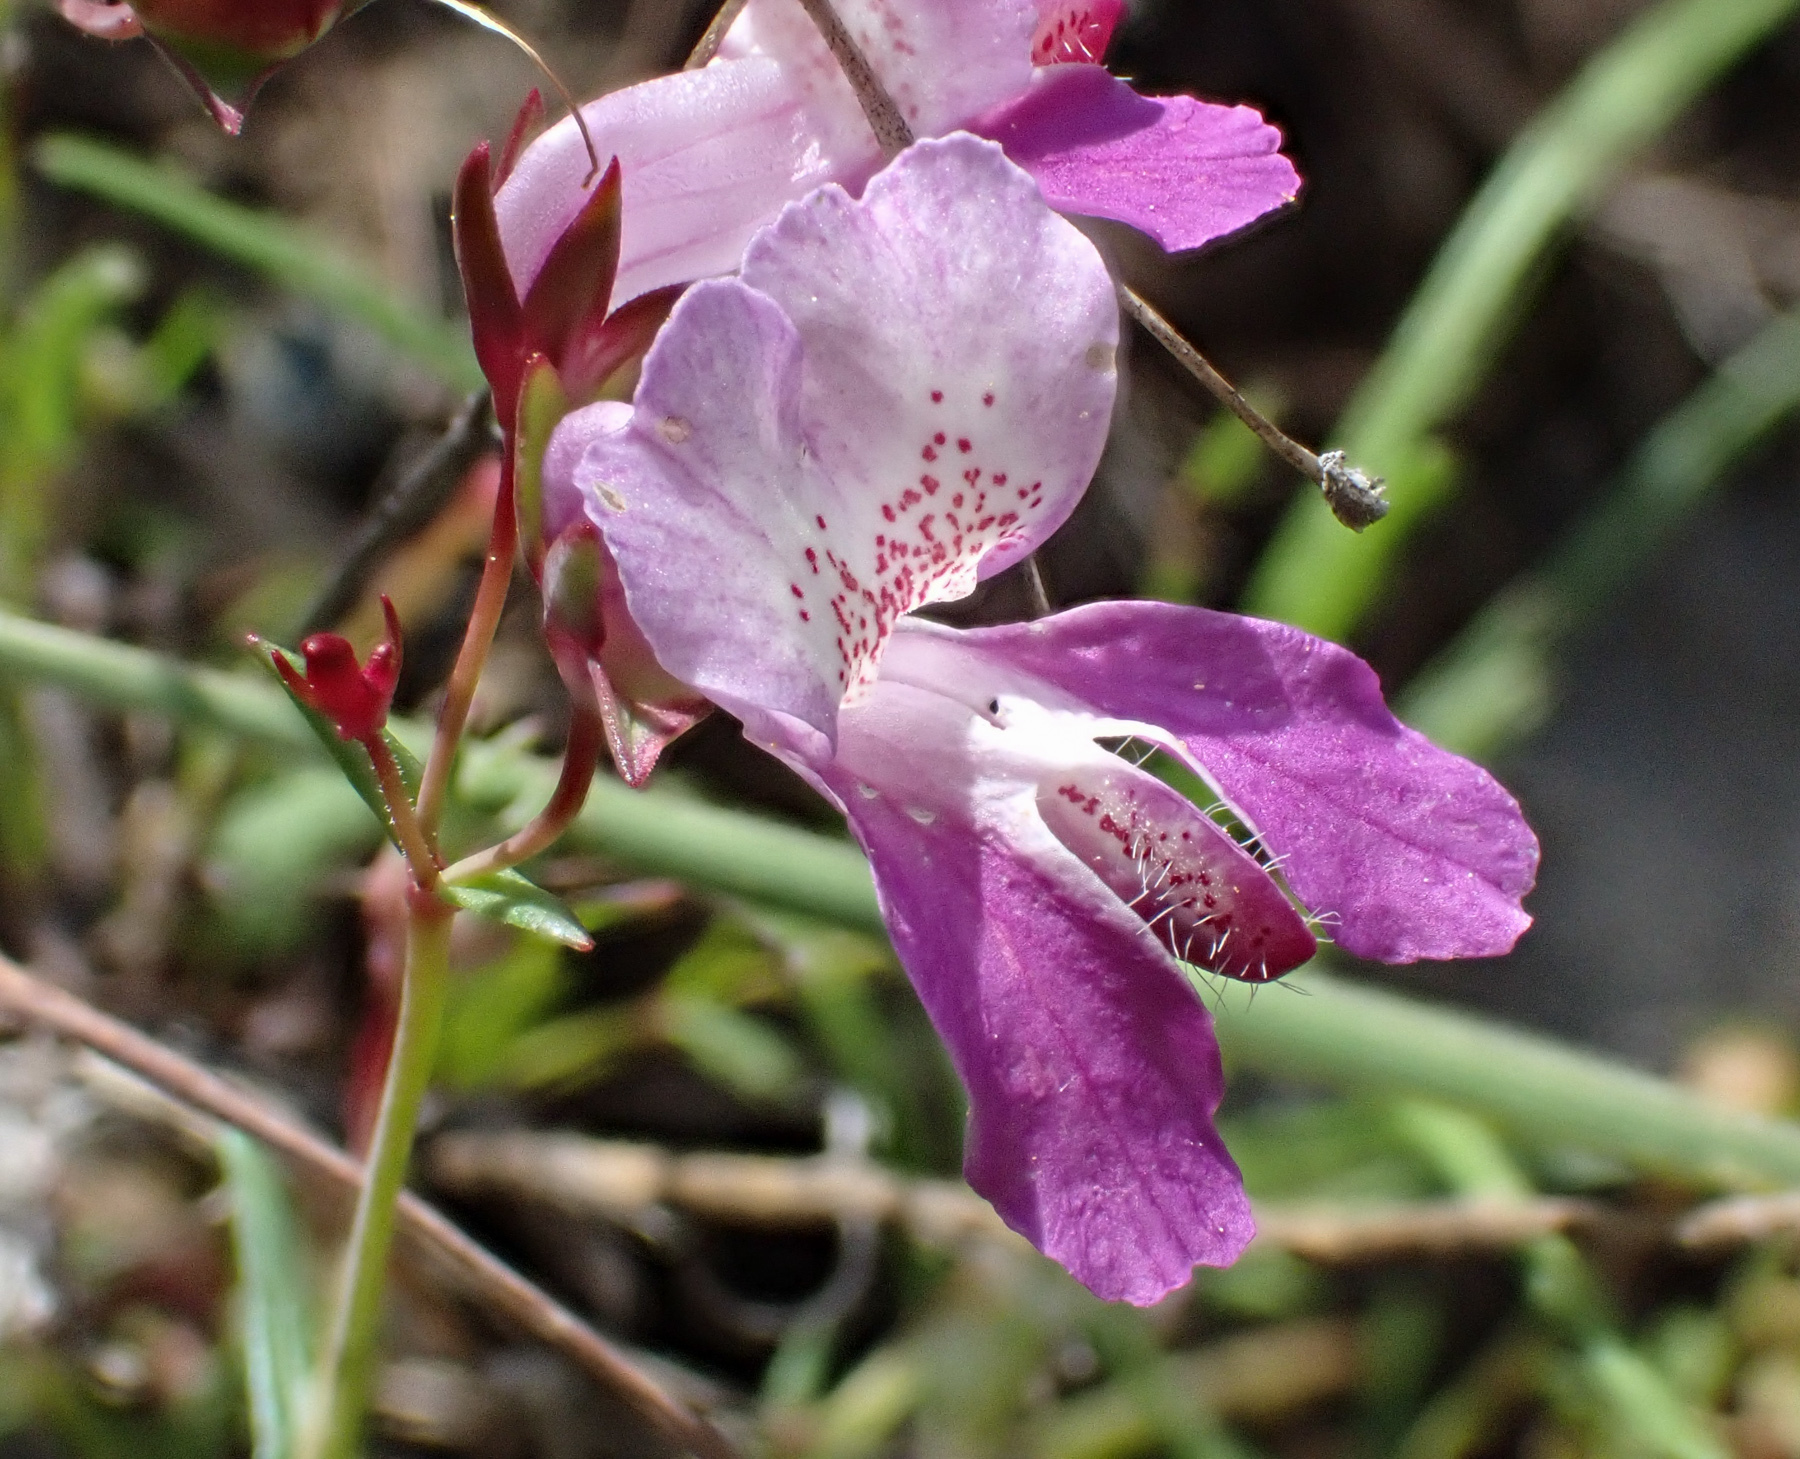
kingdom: Plantae
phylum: Tracheophyta
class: Magnoliopsida
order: Lamiales
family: Plantaginaceae
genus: Collinsia
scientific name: Collinsia sparsiflora
